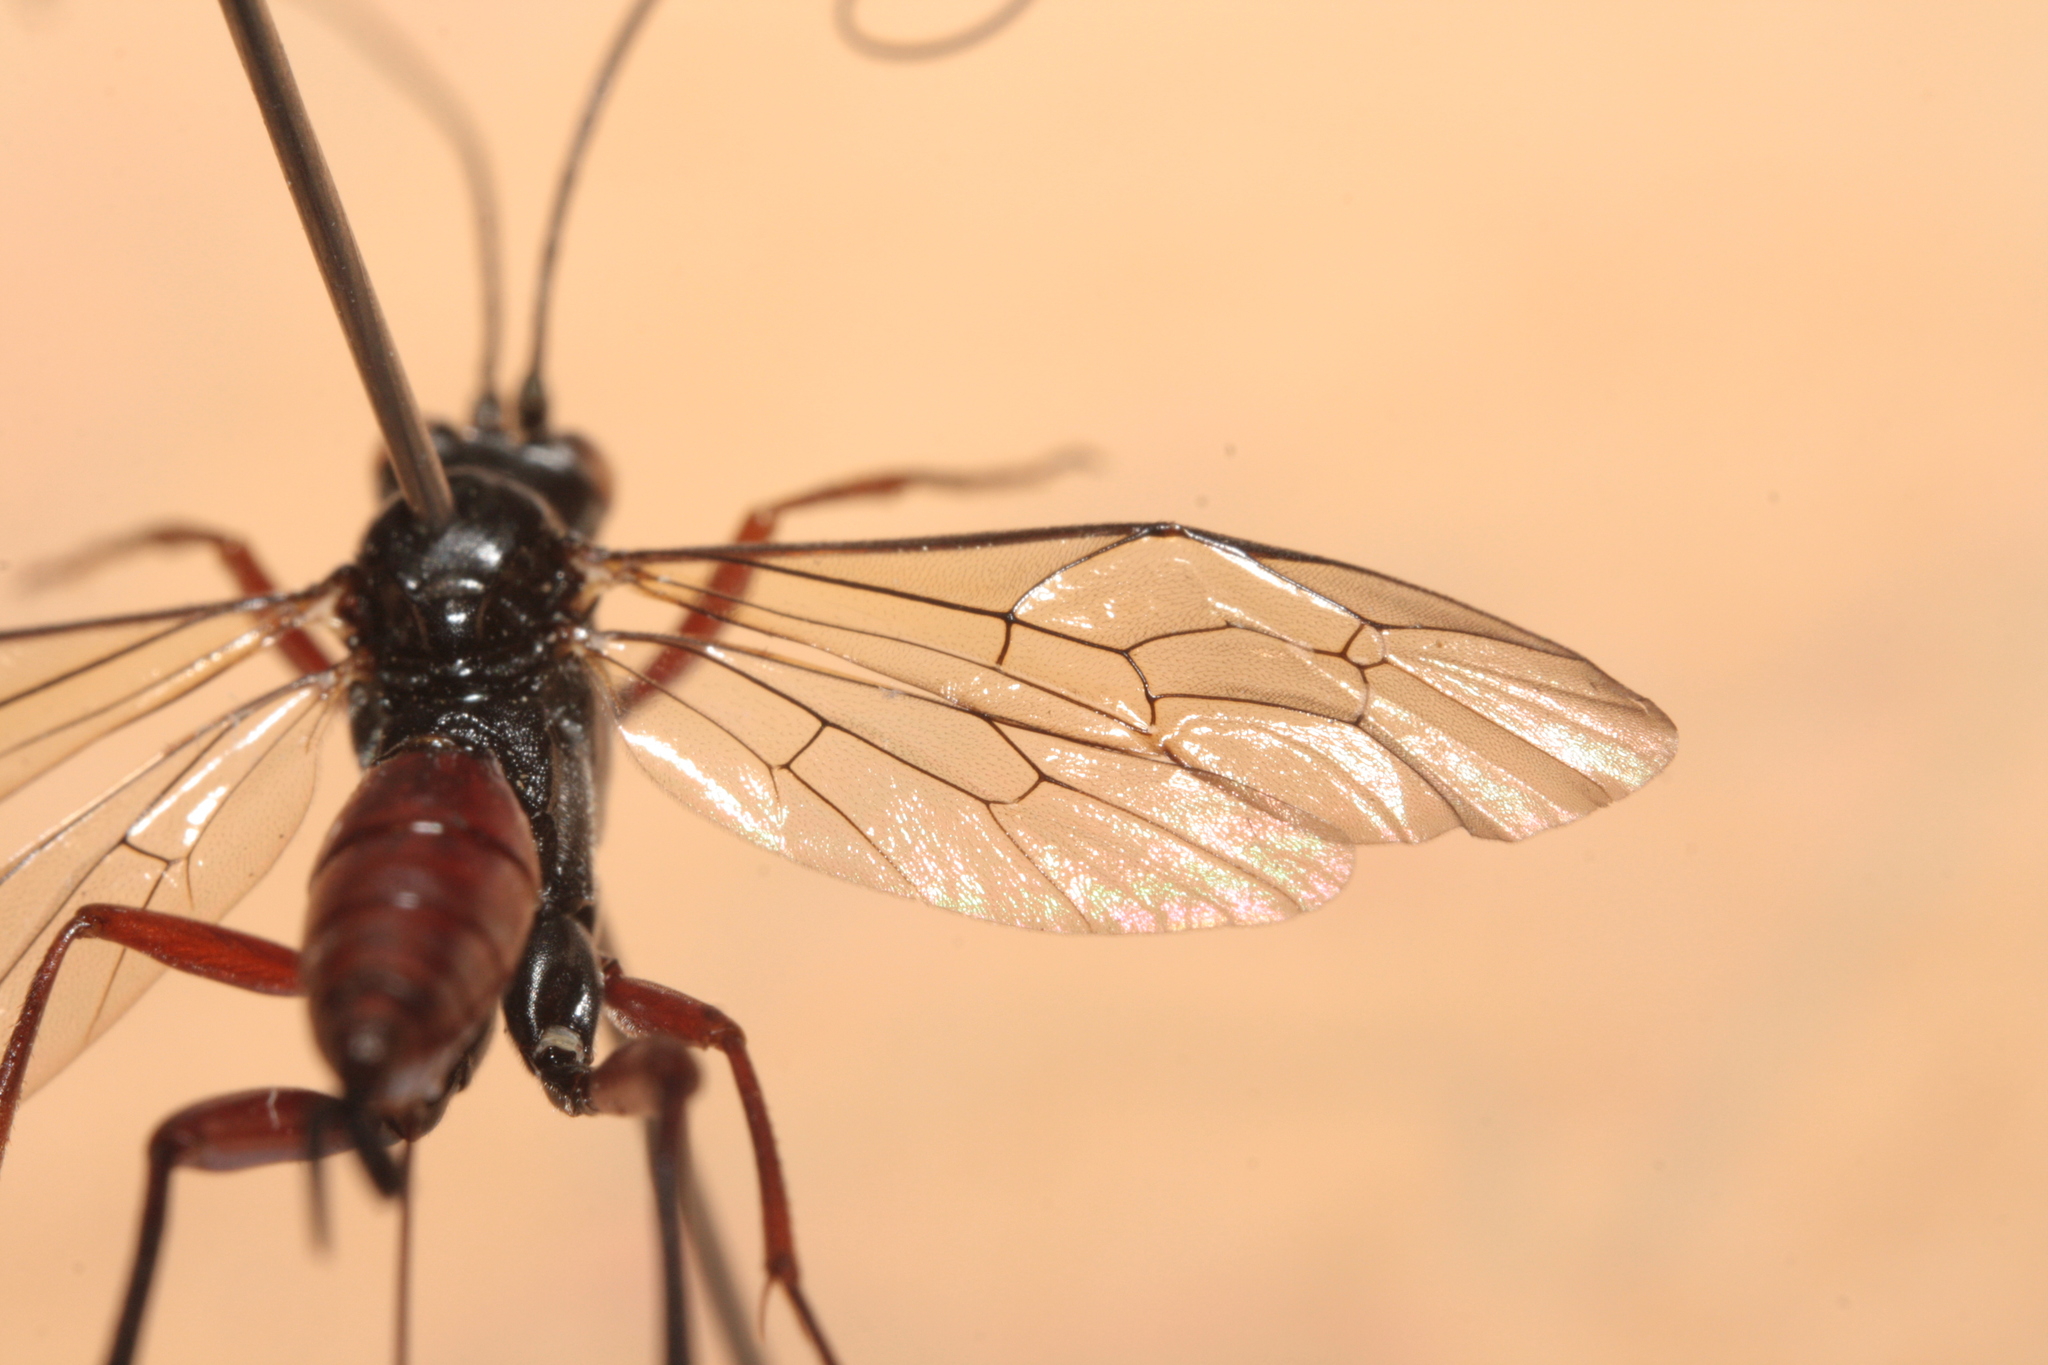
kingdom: Animalia
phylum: Arthropoda
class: Insecta
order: Hymenoptera
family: Ichneumonidae
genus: Cryptus
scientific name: Cryptus armator
